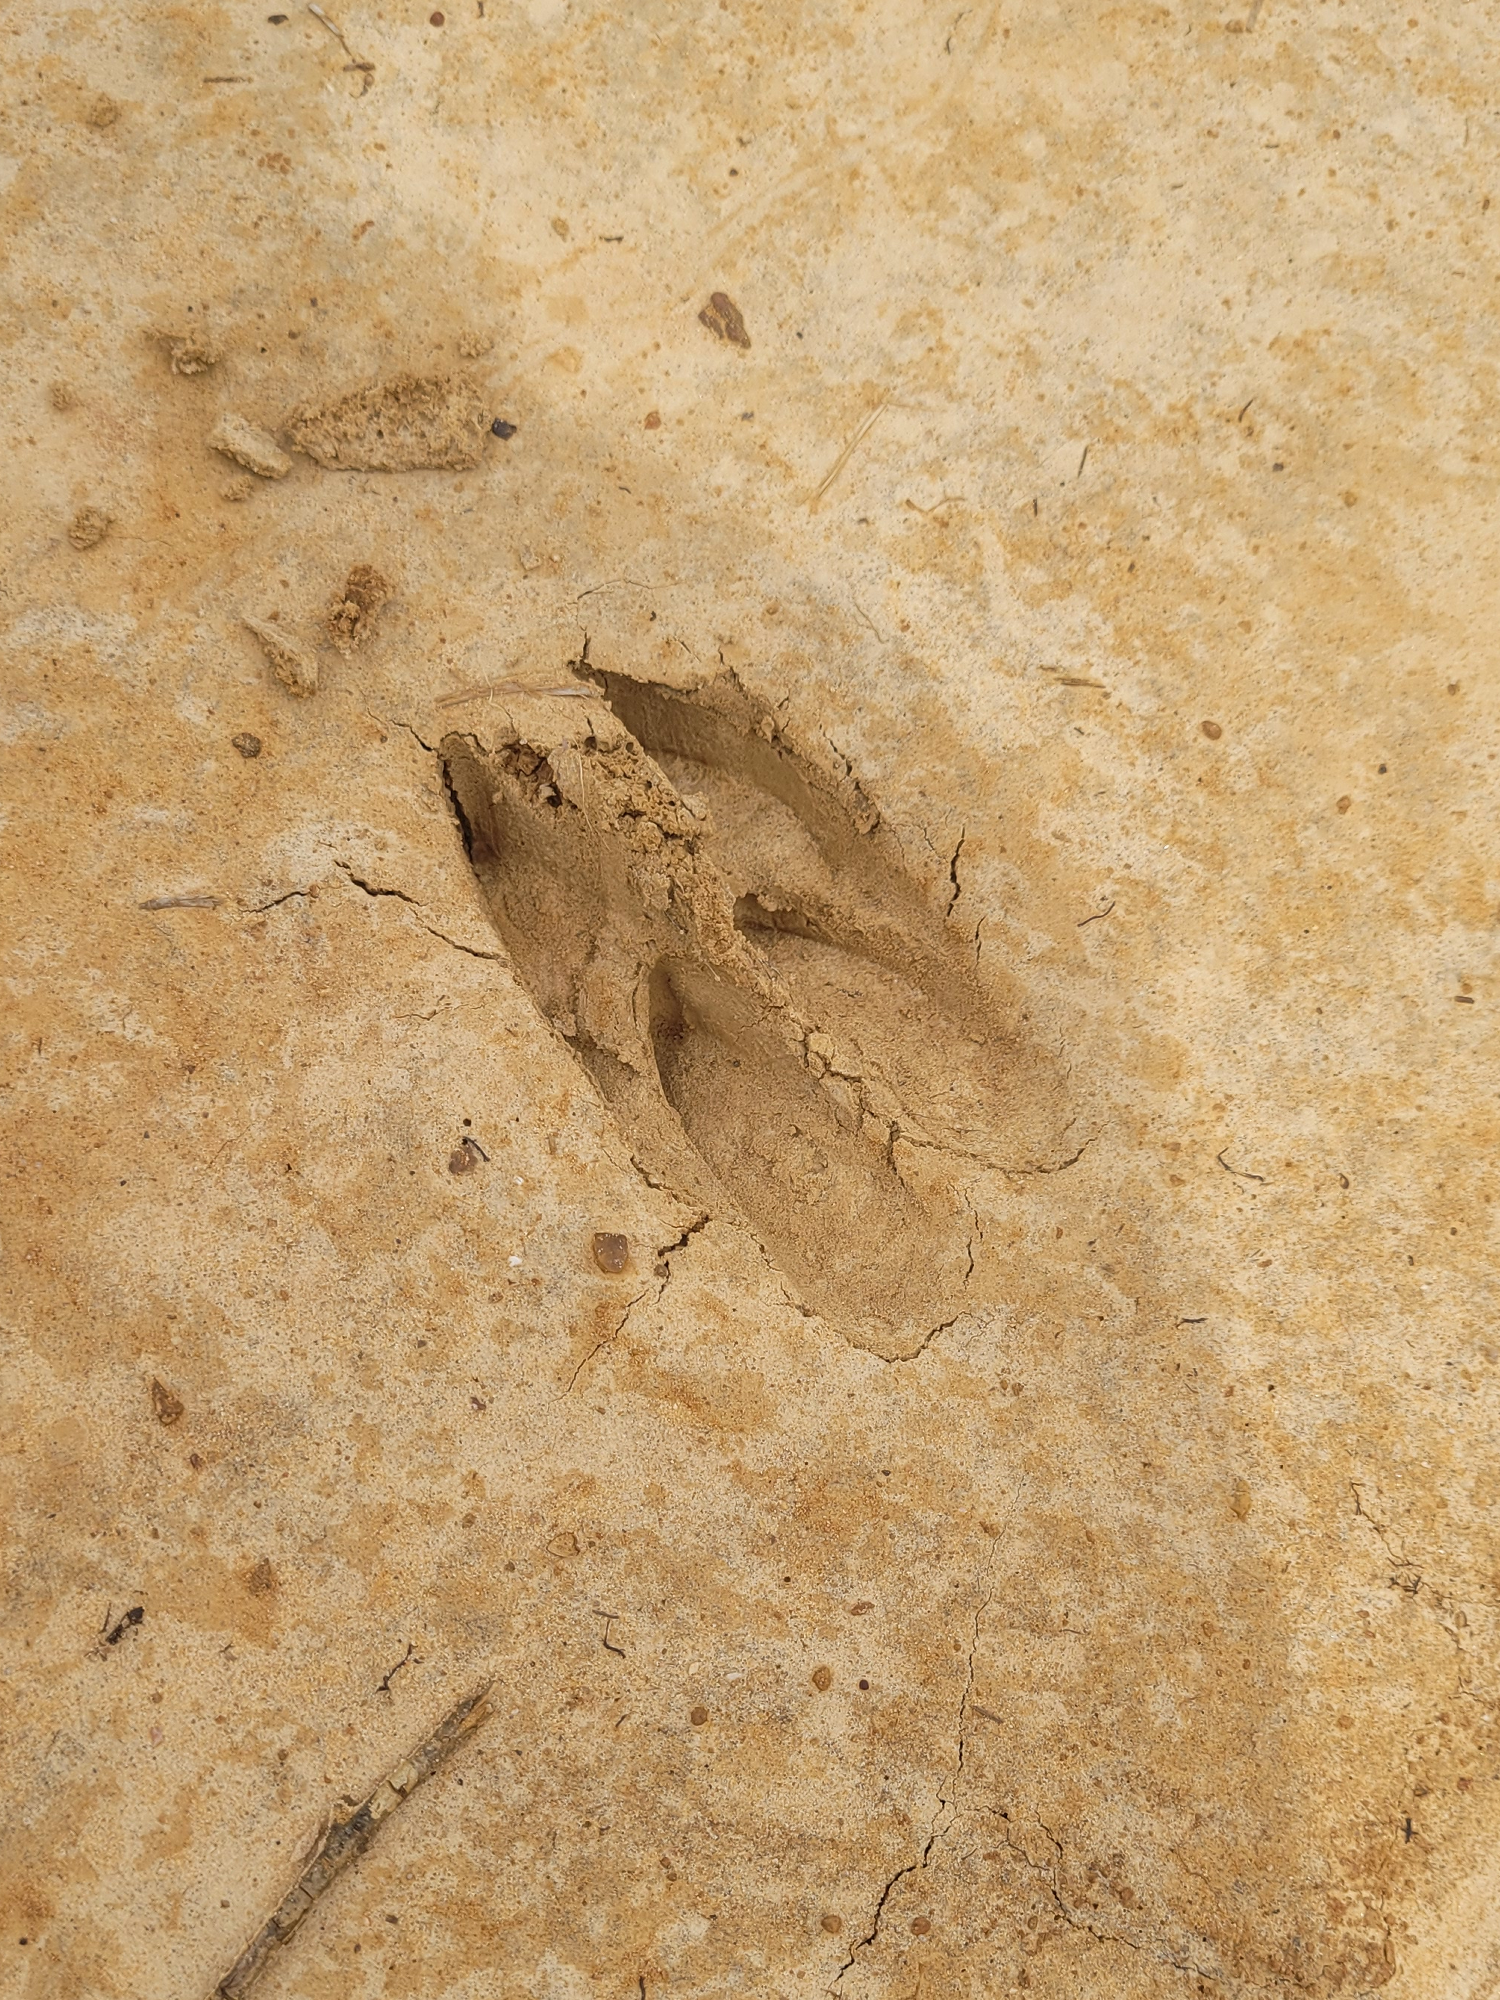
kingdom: Animalia
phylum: Chordata
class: Mammalia
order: Artiodactyla
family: Cervidae
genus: Odocoileus
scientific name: Odocoileus virginianus
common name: White-tailed deer
